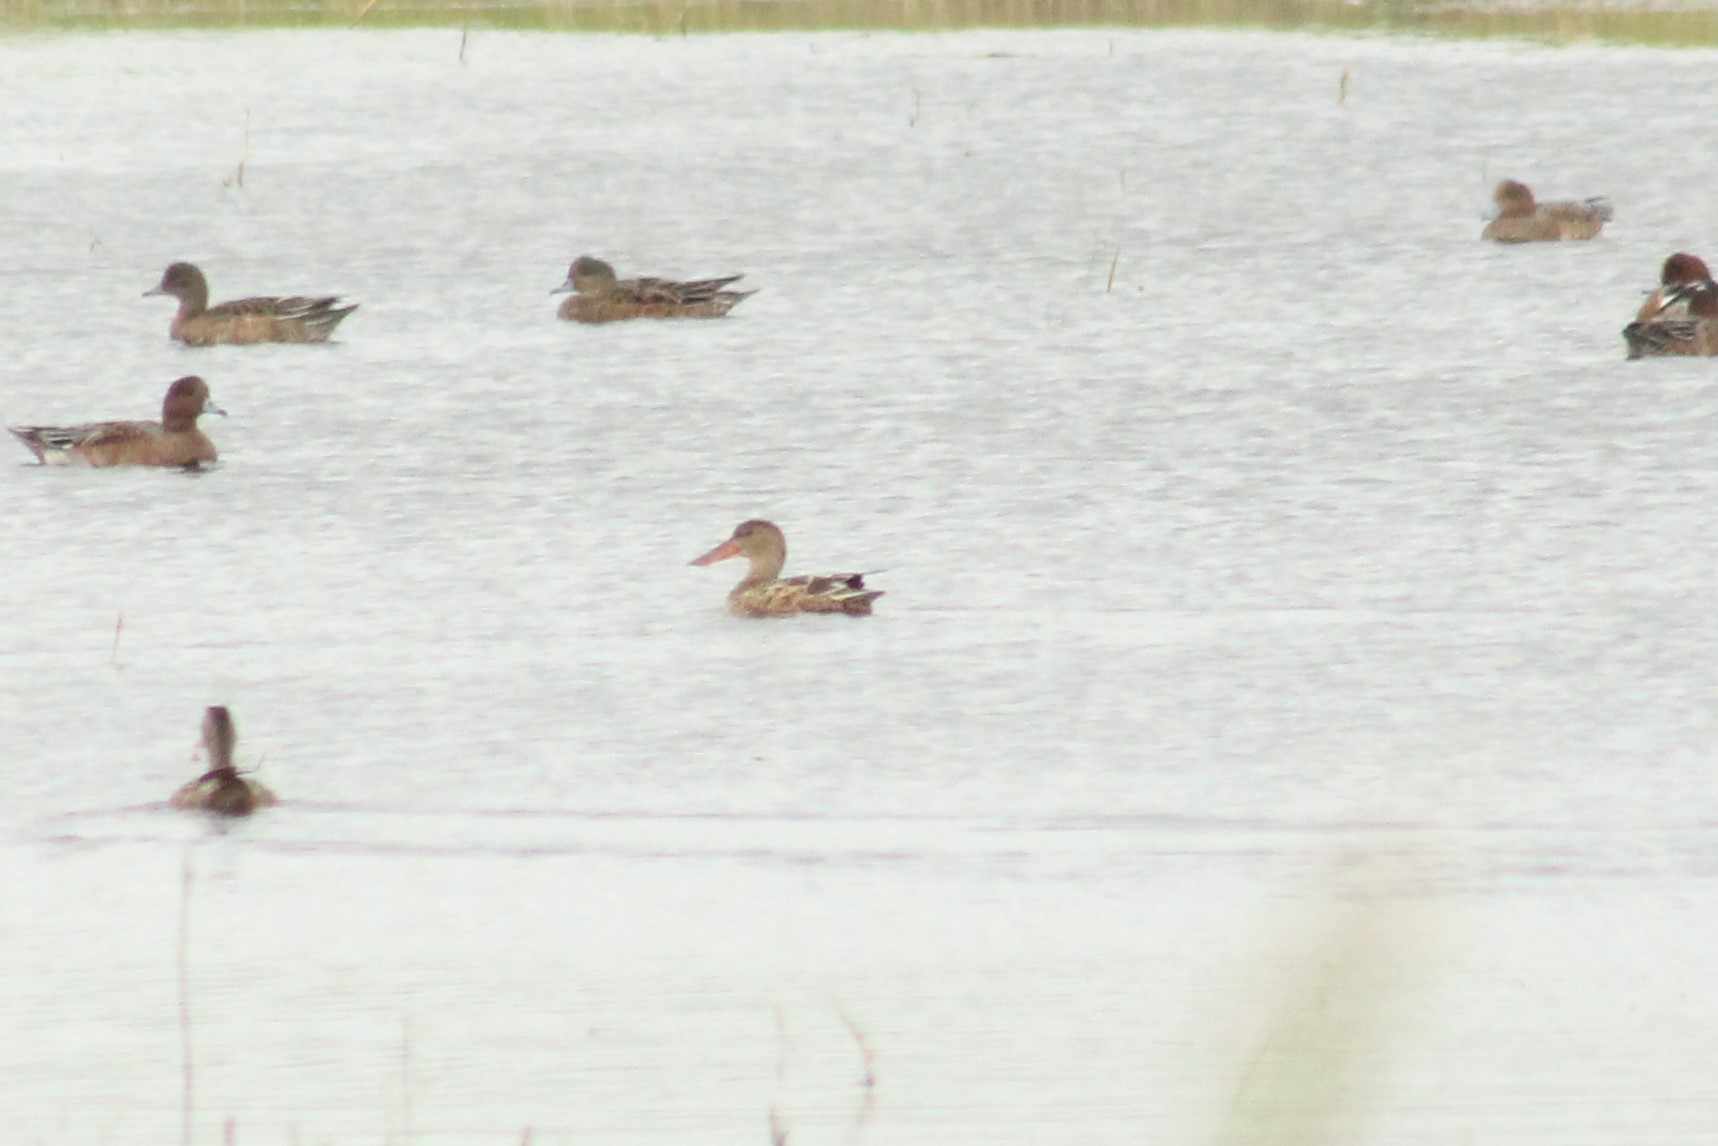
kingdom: Animalia
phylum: Chordata
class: Aves
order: Anseriformes
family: Anatidae
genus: Spatula
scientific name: Spatula clypeata
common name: Northern shoveler
